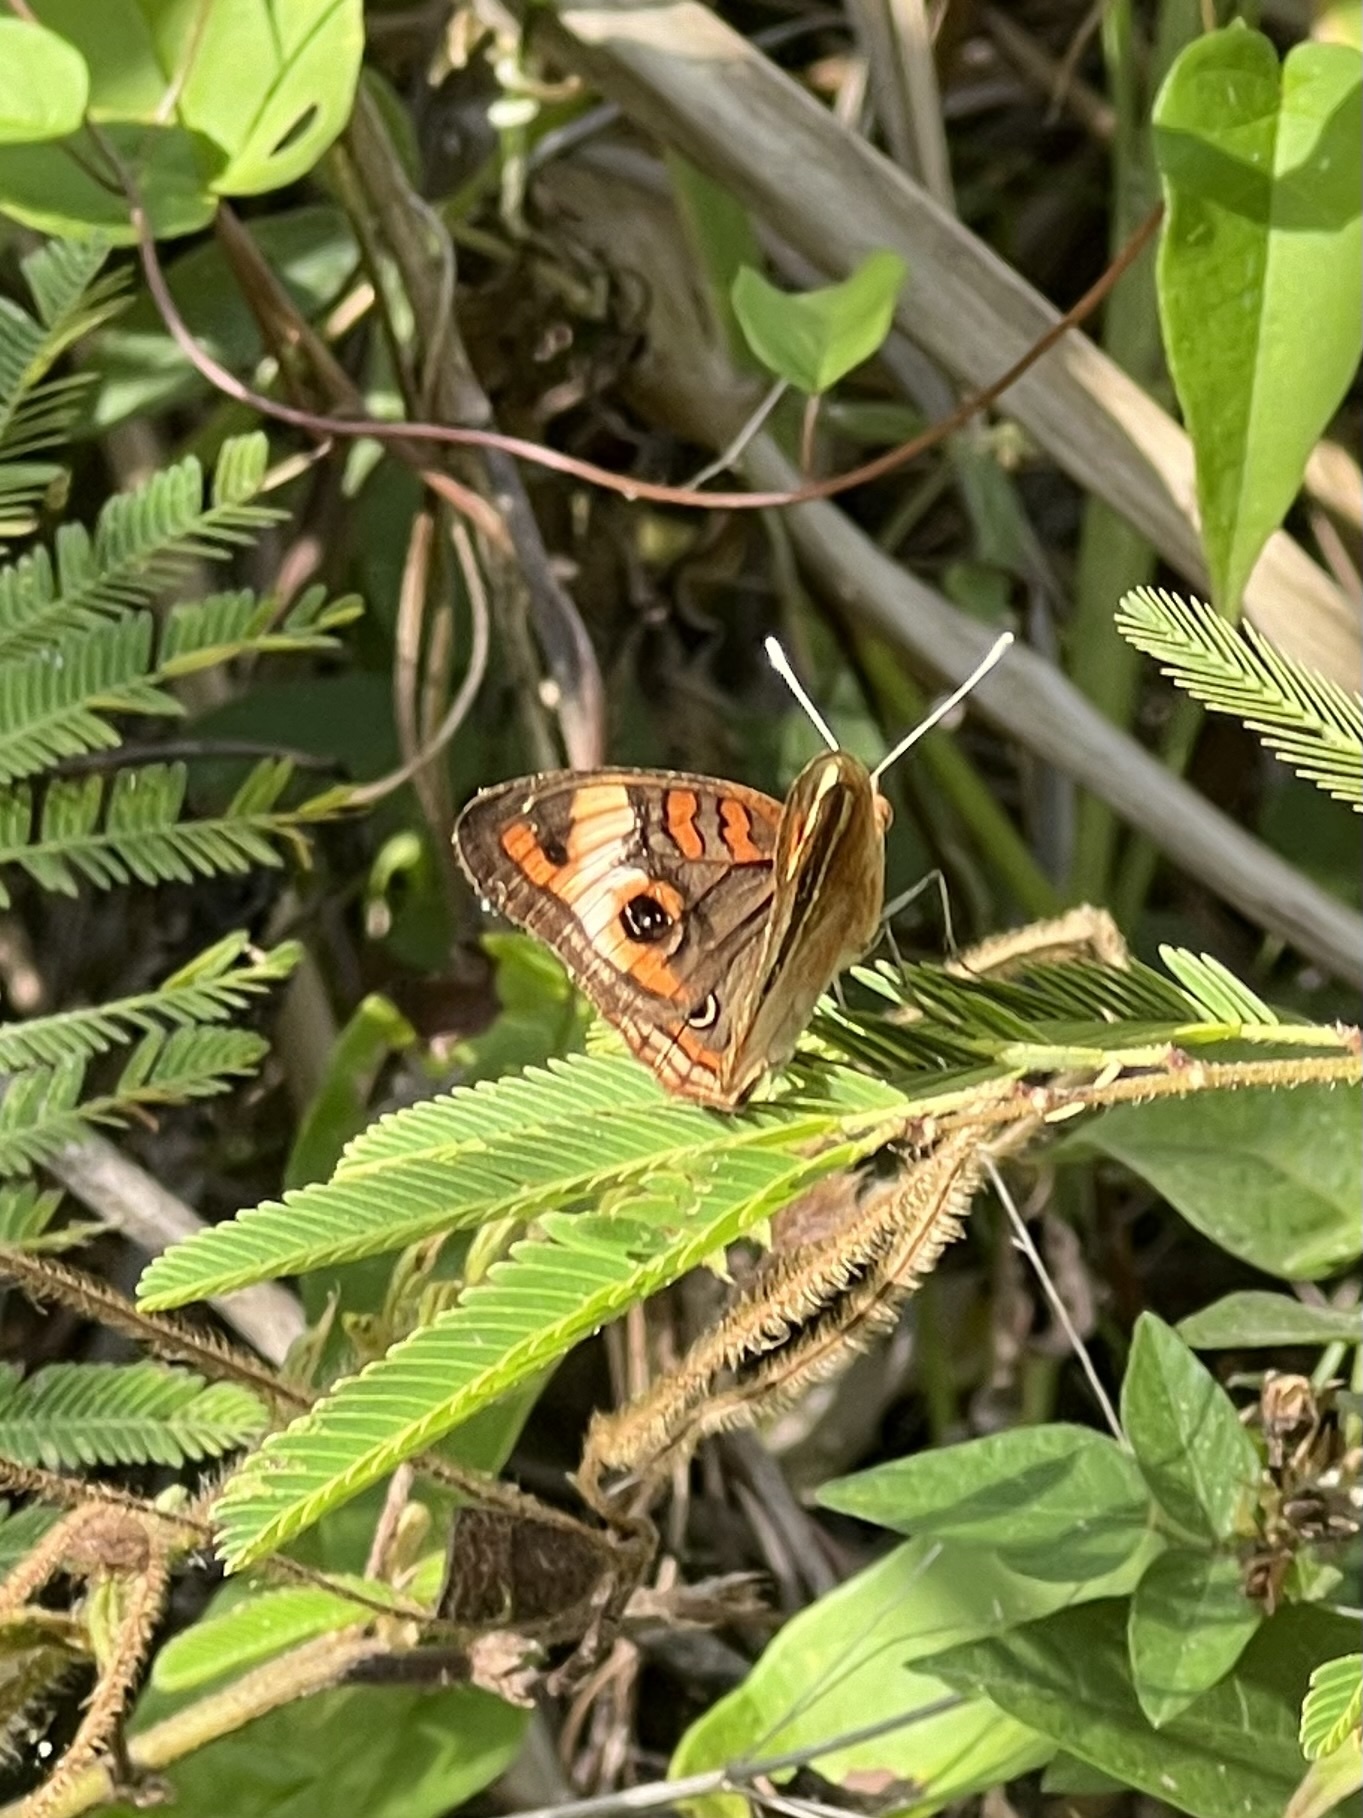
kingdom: Animalia
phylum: Arthropoda
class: Insecta
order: Lepidoptera
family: Nymphalidae
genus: Junonia
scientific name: Junonia lavinia
